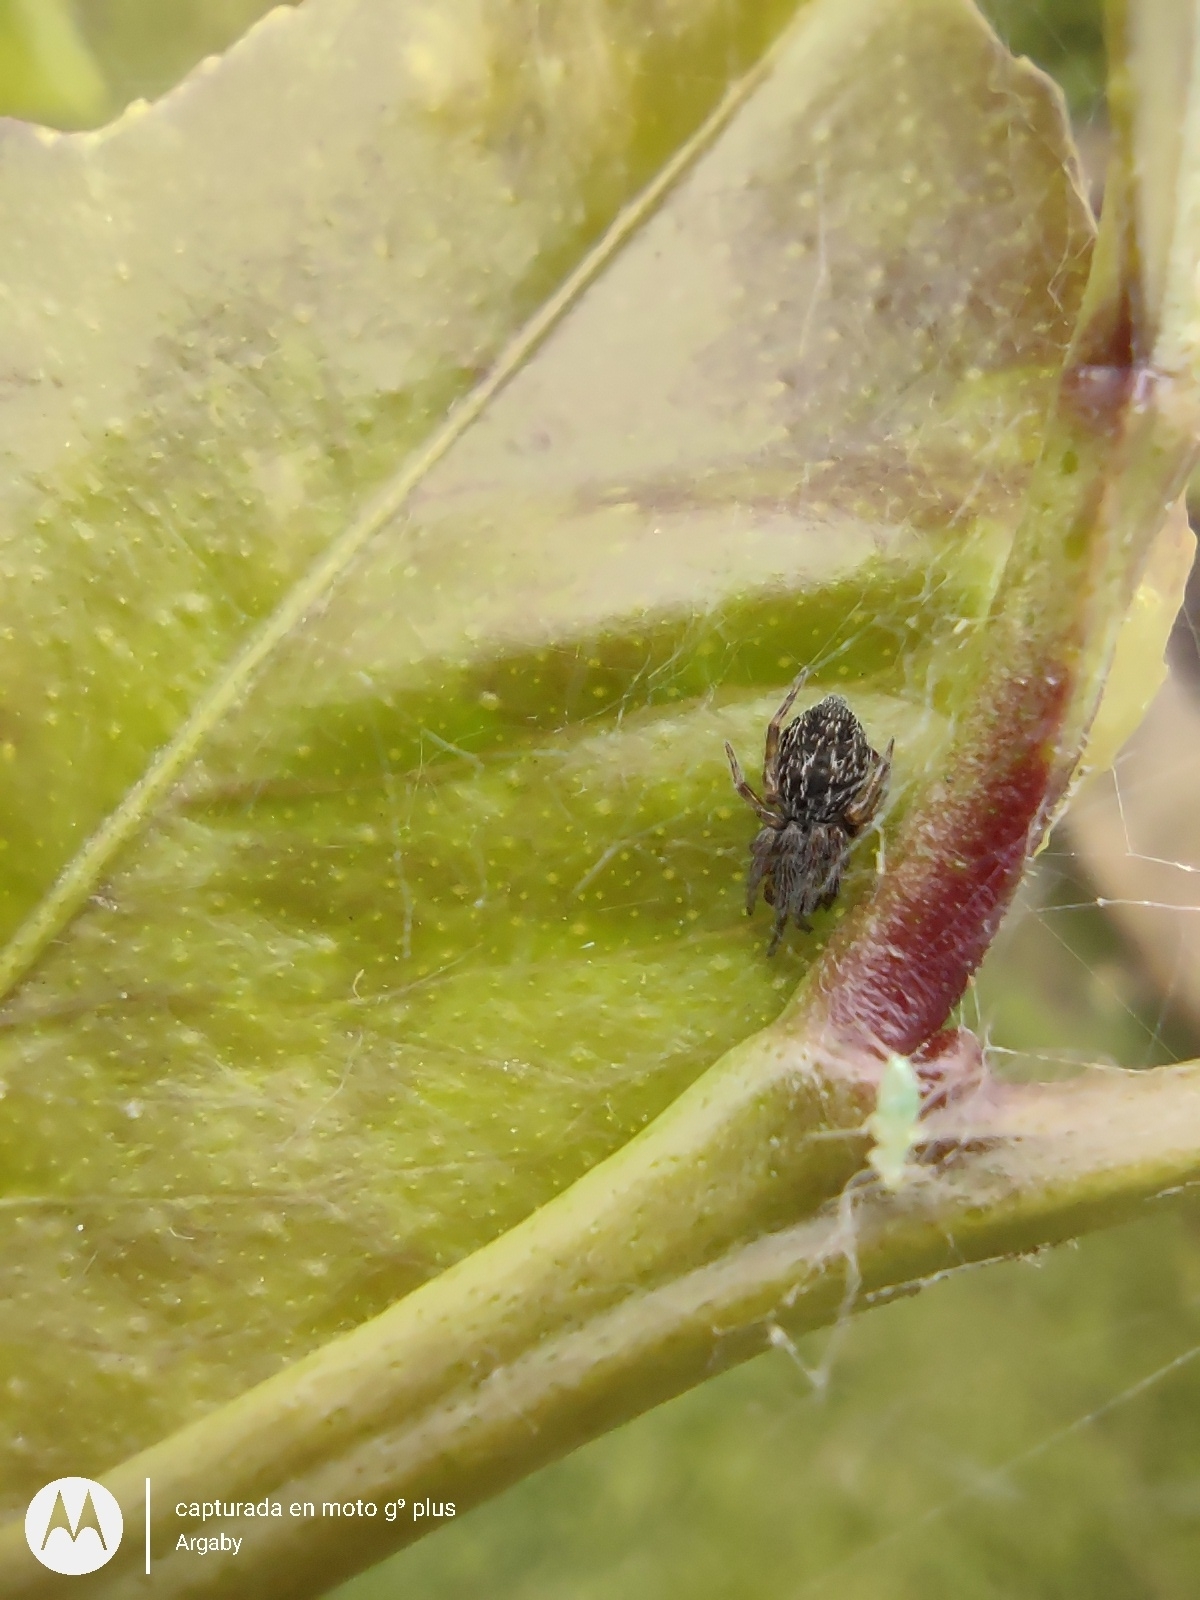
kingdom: Animalia
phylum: Arthropoda
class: Arachnida
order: Araneae
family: Desidae
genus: Badumna
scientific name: Badumna longinqua
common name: Gray house spider
